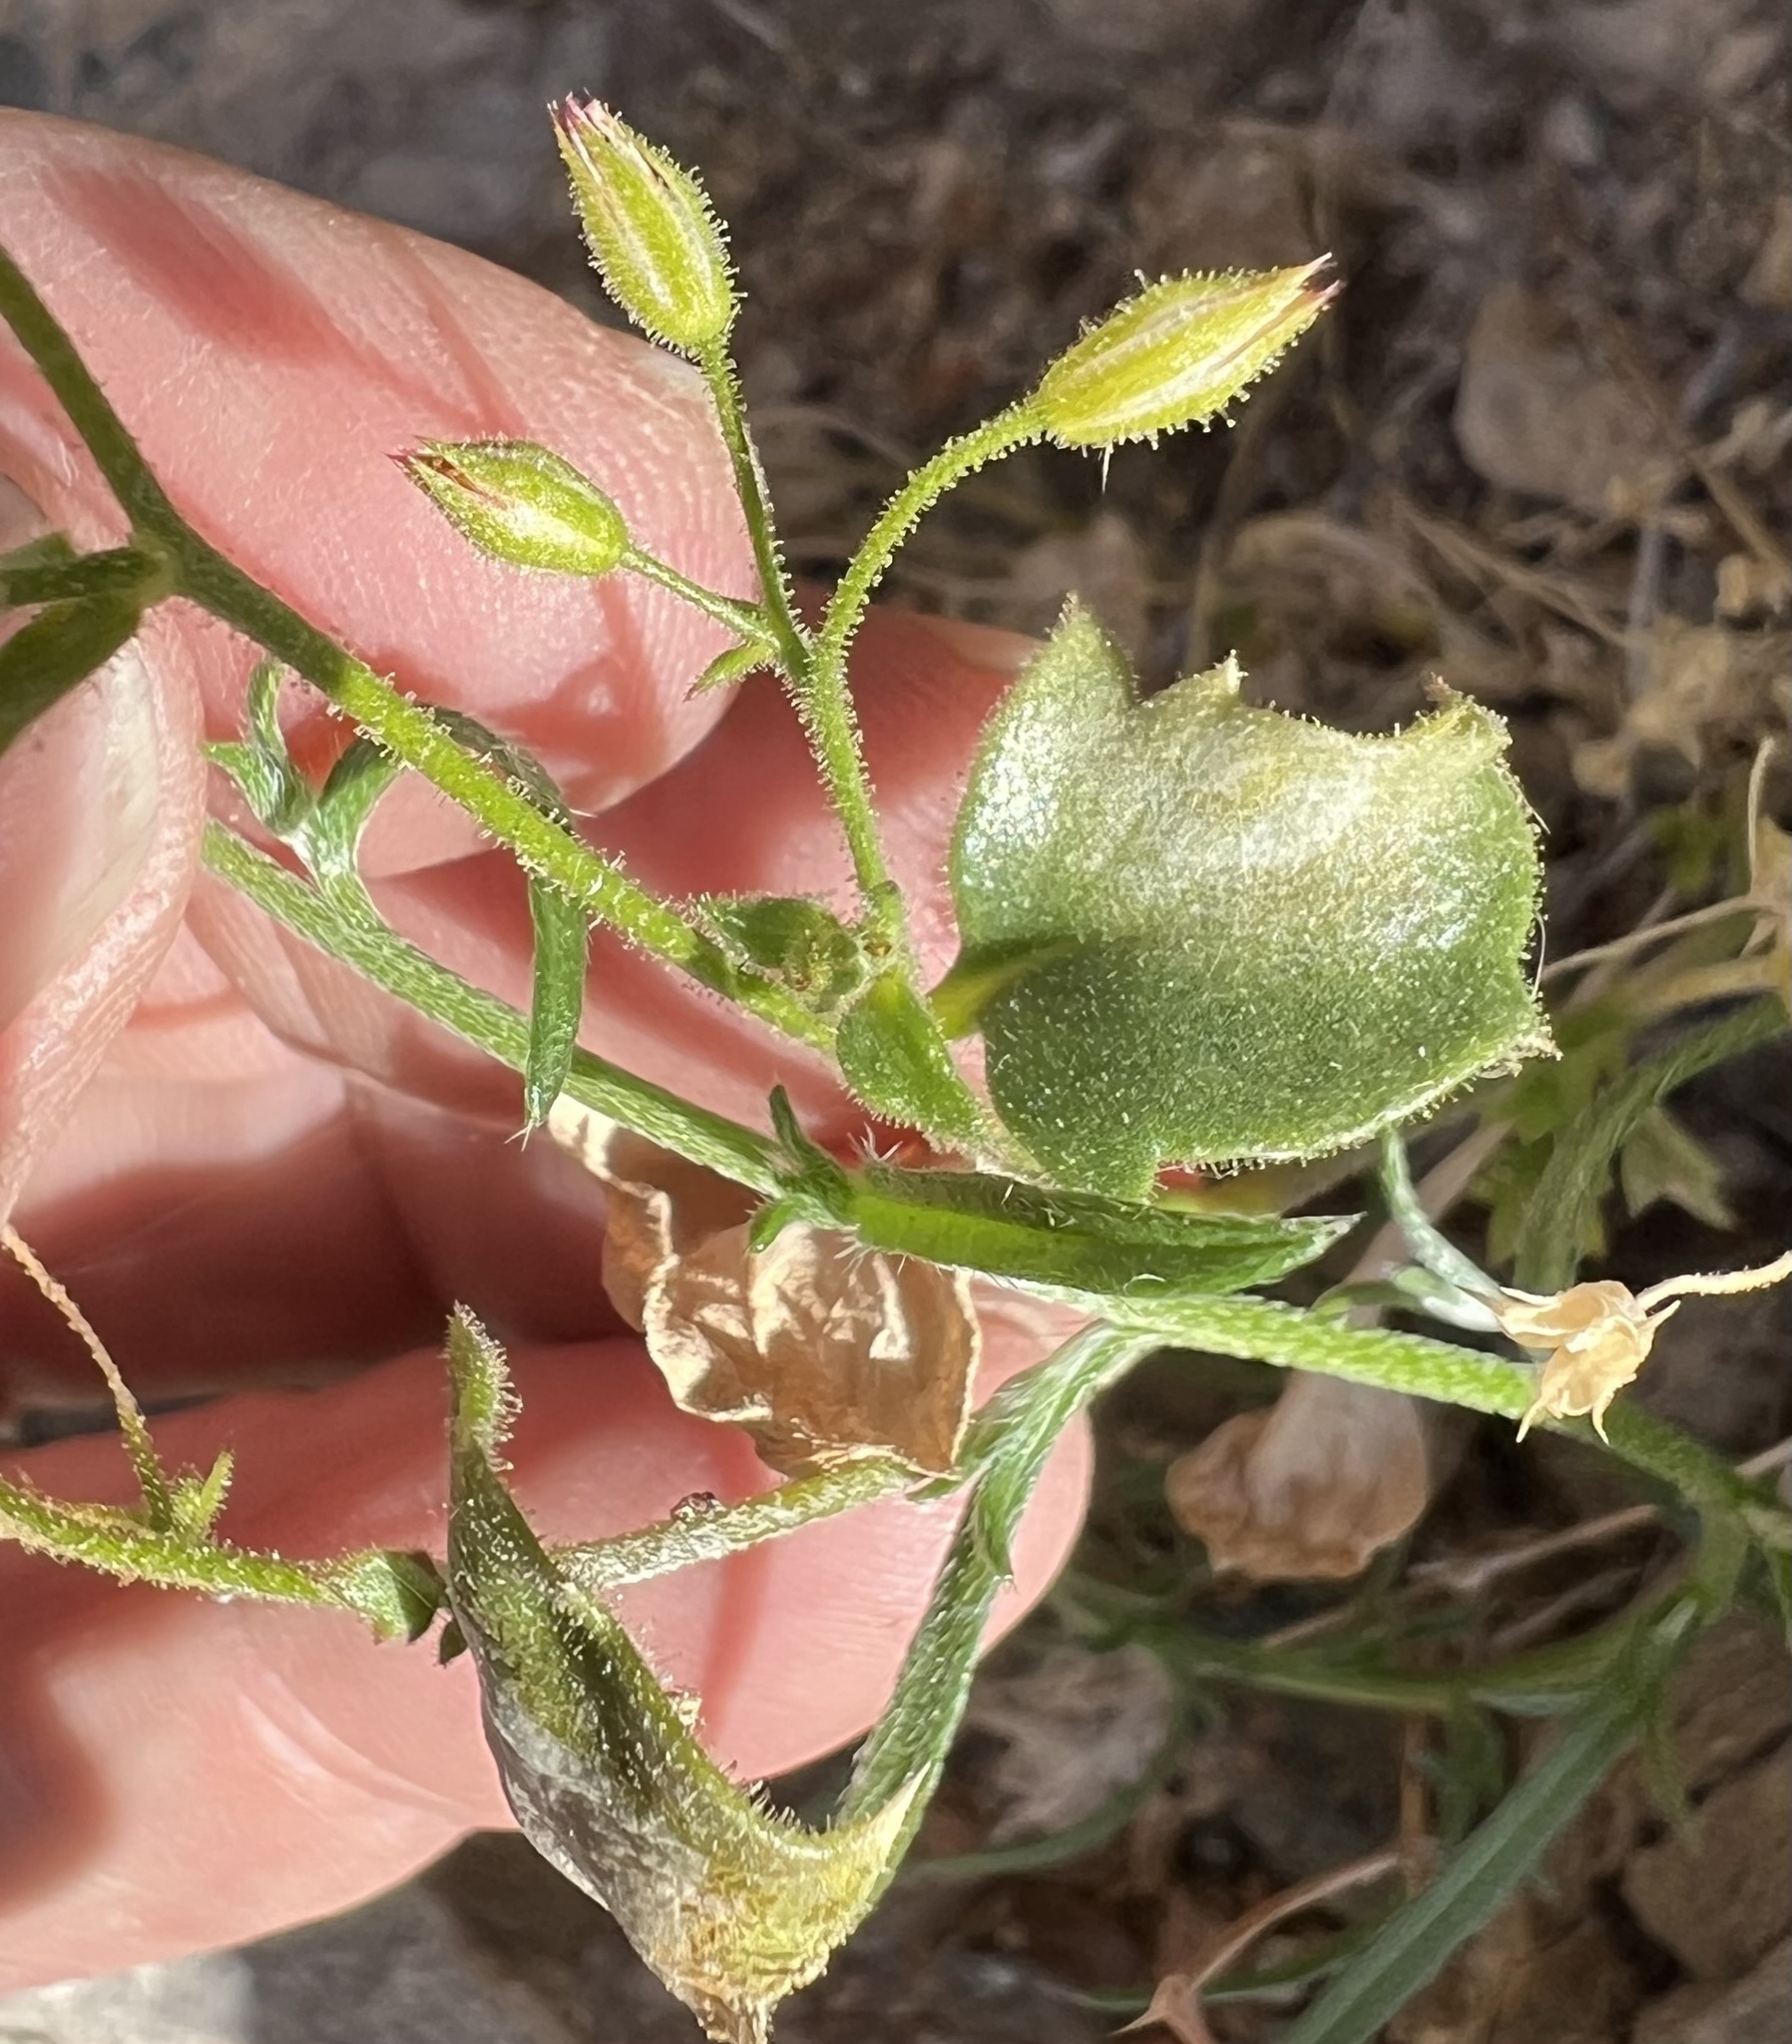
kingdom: Plantae
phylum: Tracheophyta
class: Magnoliopsida
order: Ericales
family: Polemoniaceae
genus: Aliciella
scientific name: Aliciella latifolia
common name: Broad-leaf gilia
